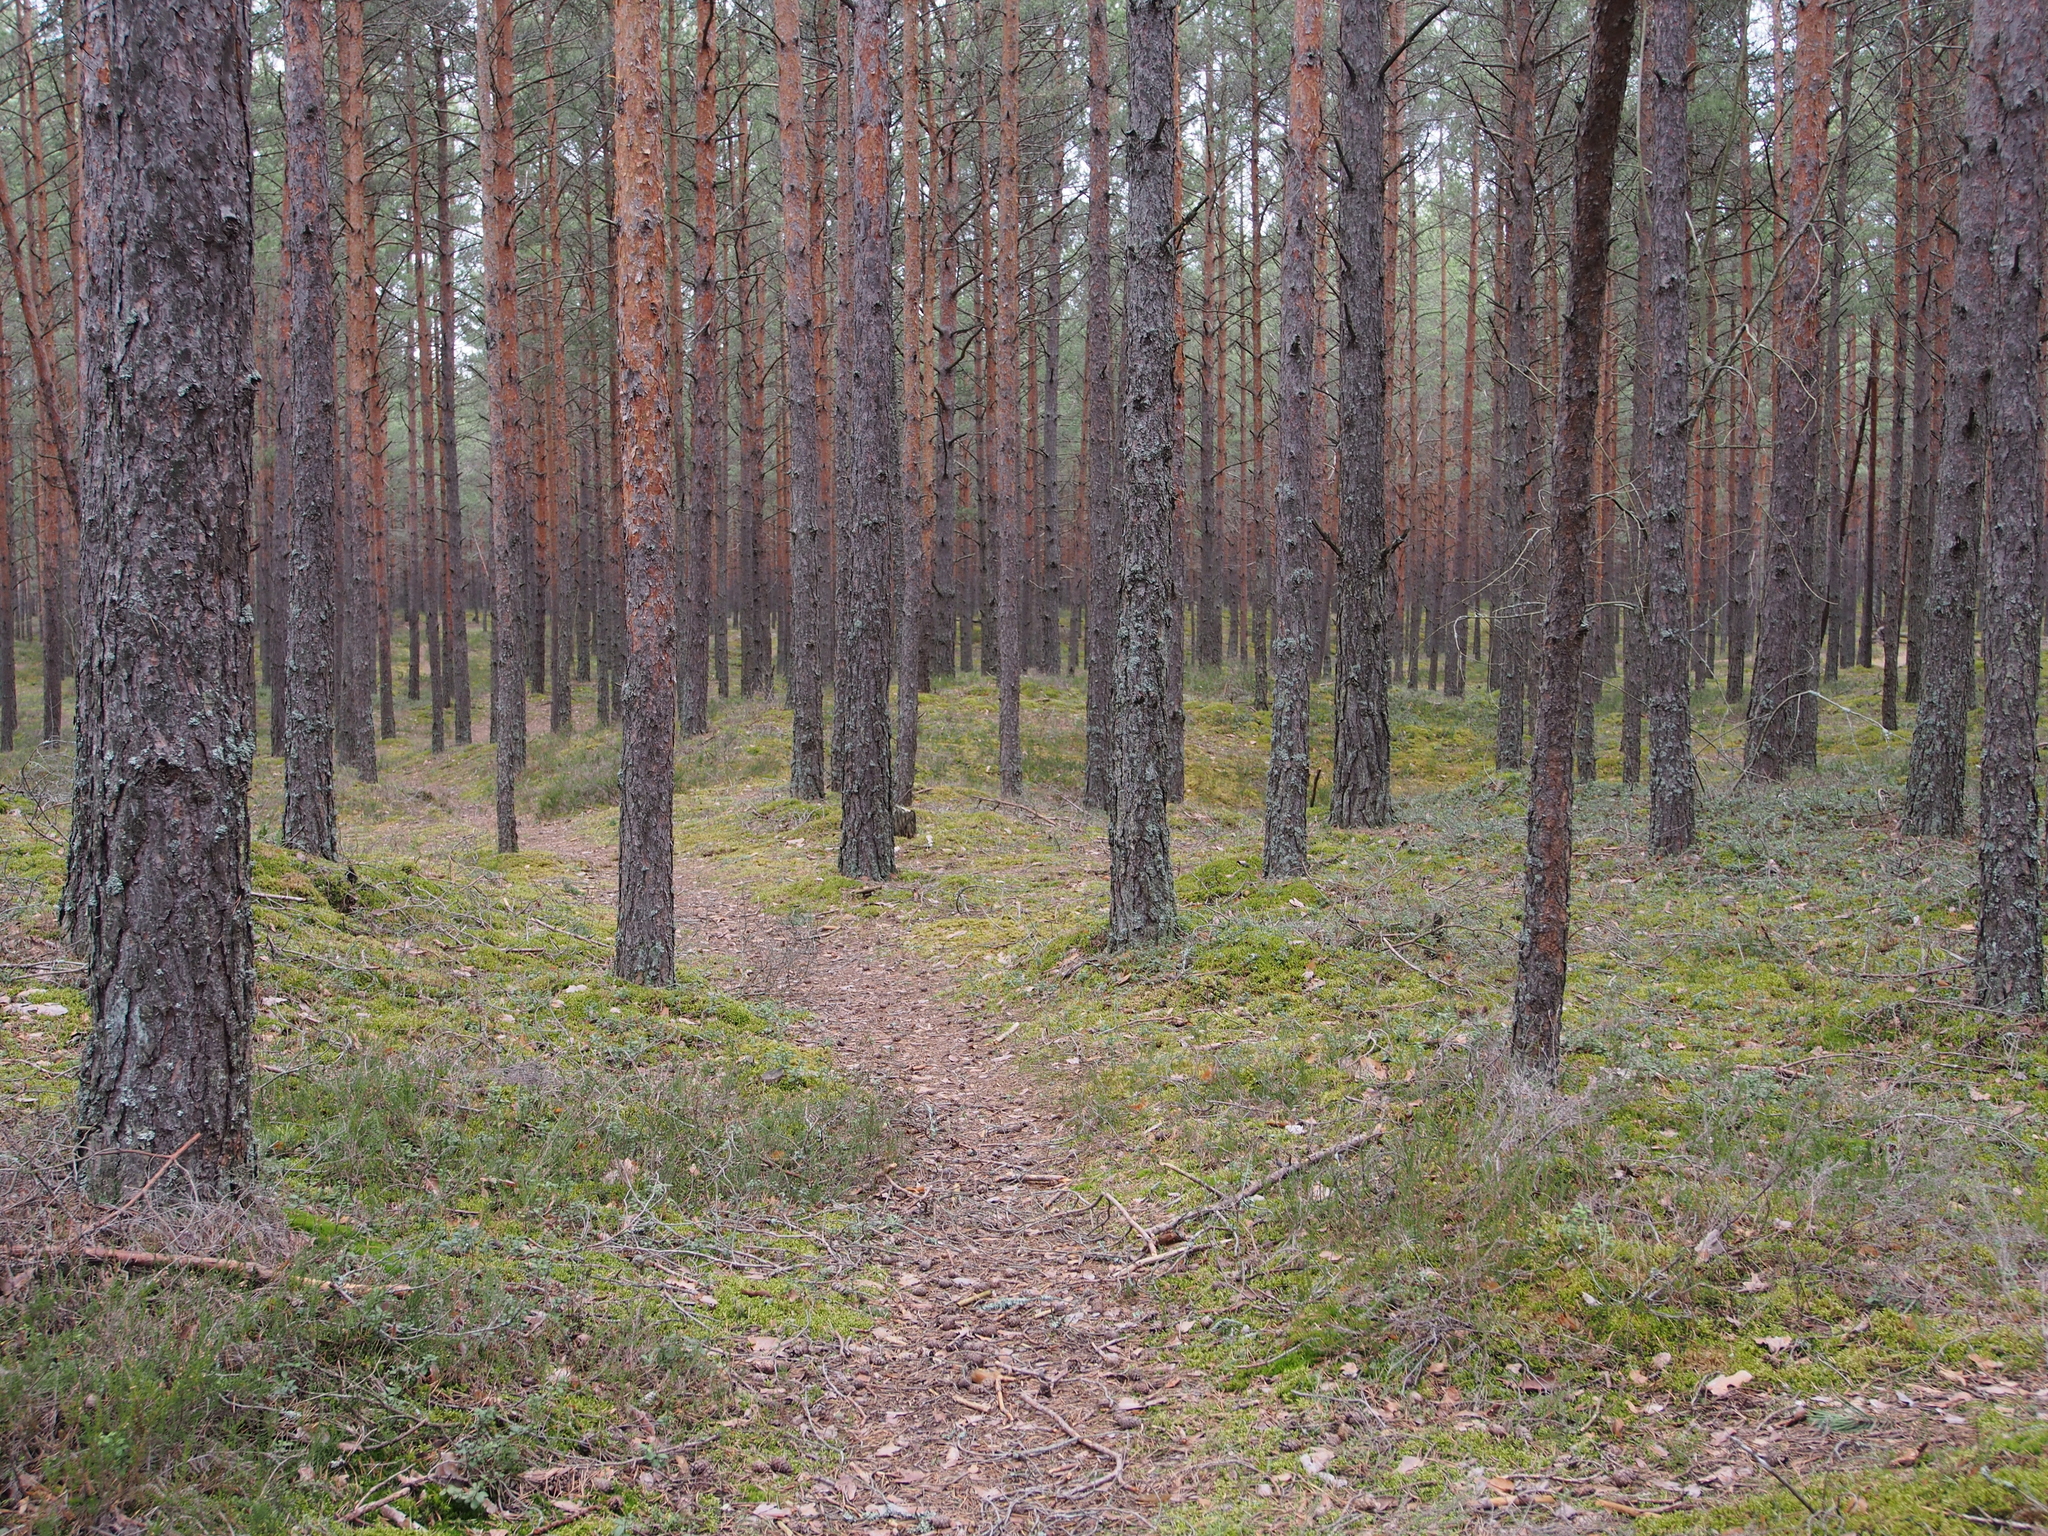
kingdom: Plantae
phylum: Tracheophyta
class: Pinopsida
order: Pinales
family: Pinaceae
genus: Pinus
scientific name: Pinus sylvestris
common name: Scots pine
